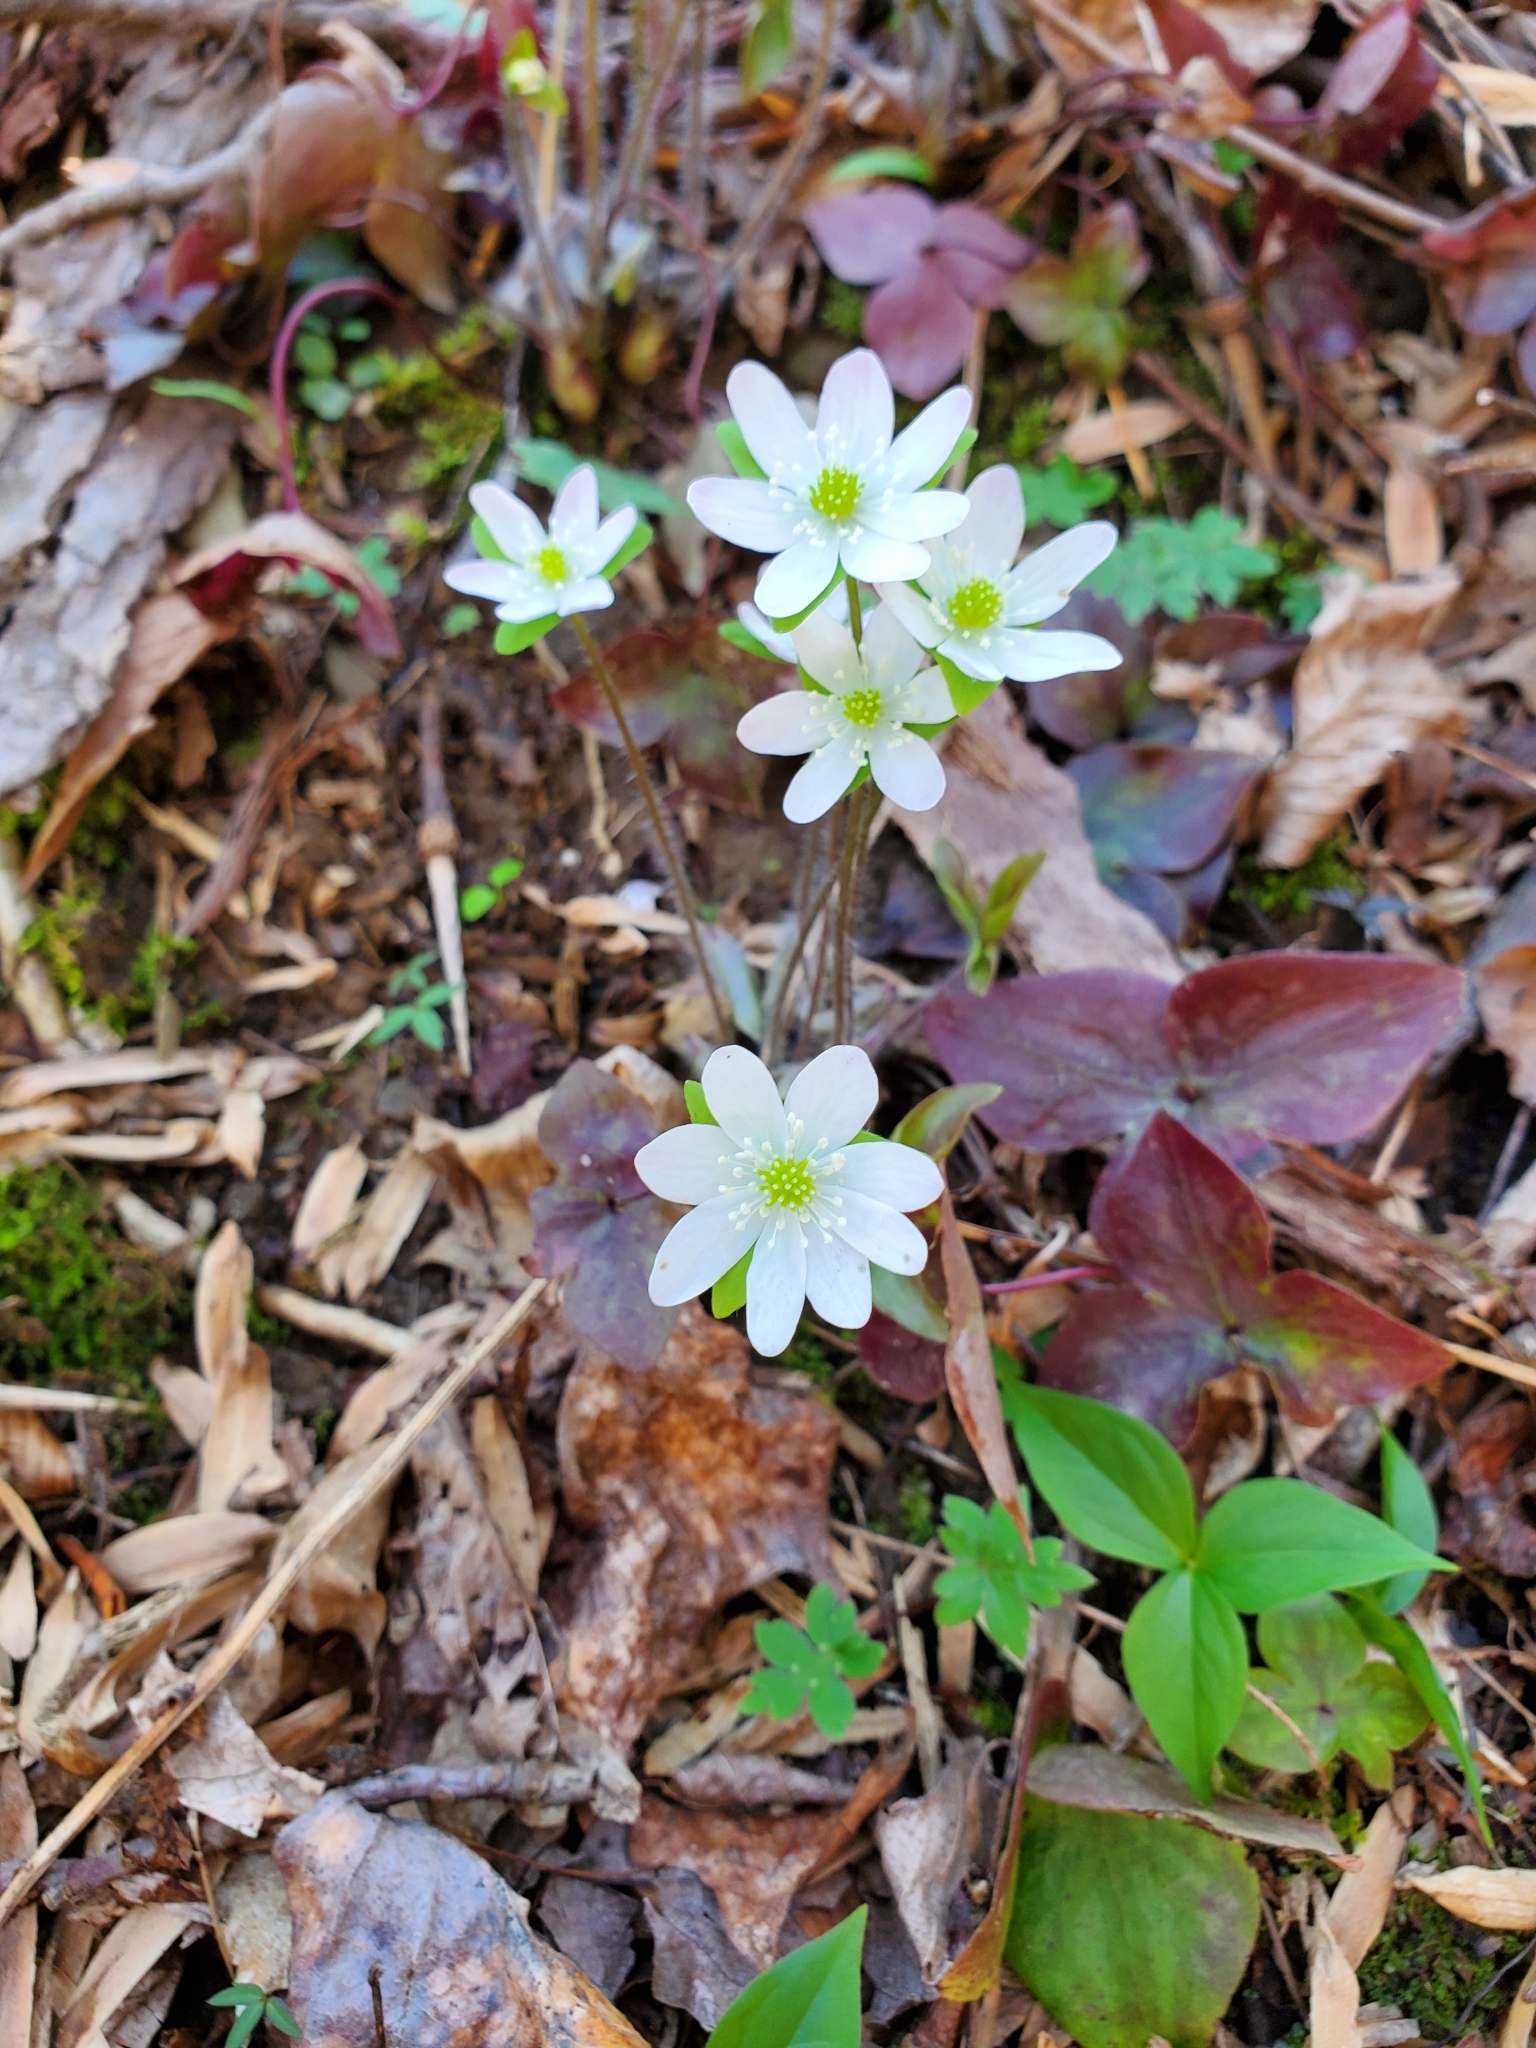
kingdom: Plantae
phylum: Tracheophyta
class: Magnoliopsida
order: Ranunculales
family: Ranunculaceae
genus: Hepatica
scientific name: Hepatica acutiloba
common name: Sharp-lobed hepatica
